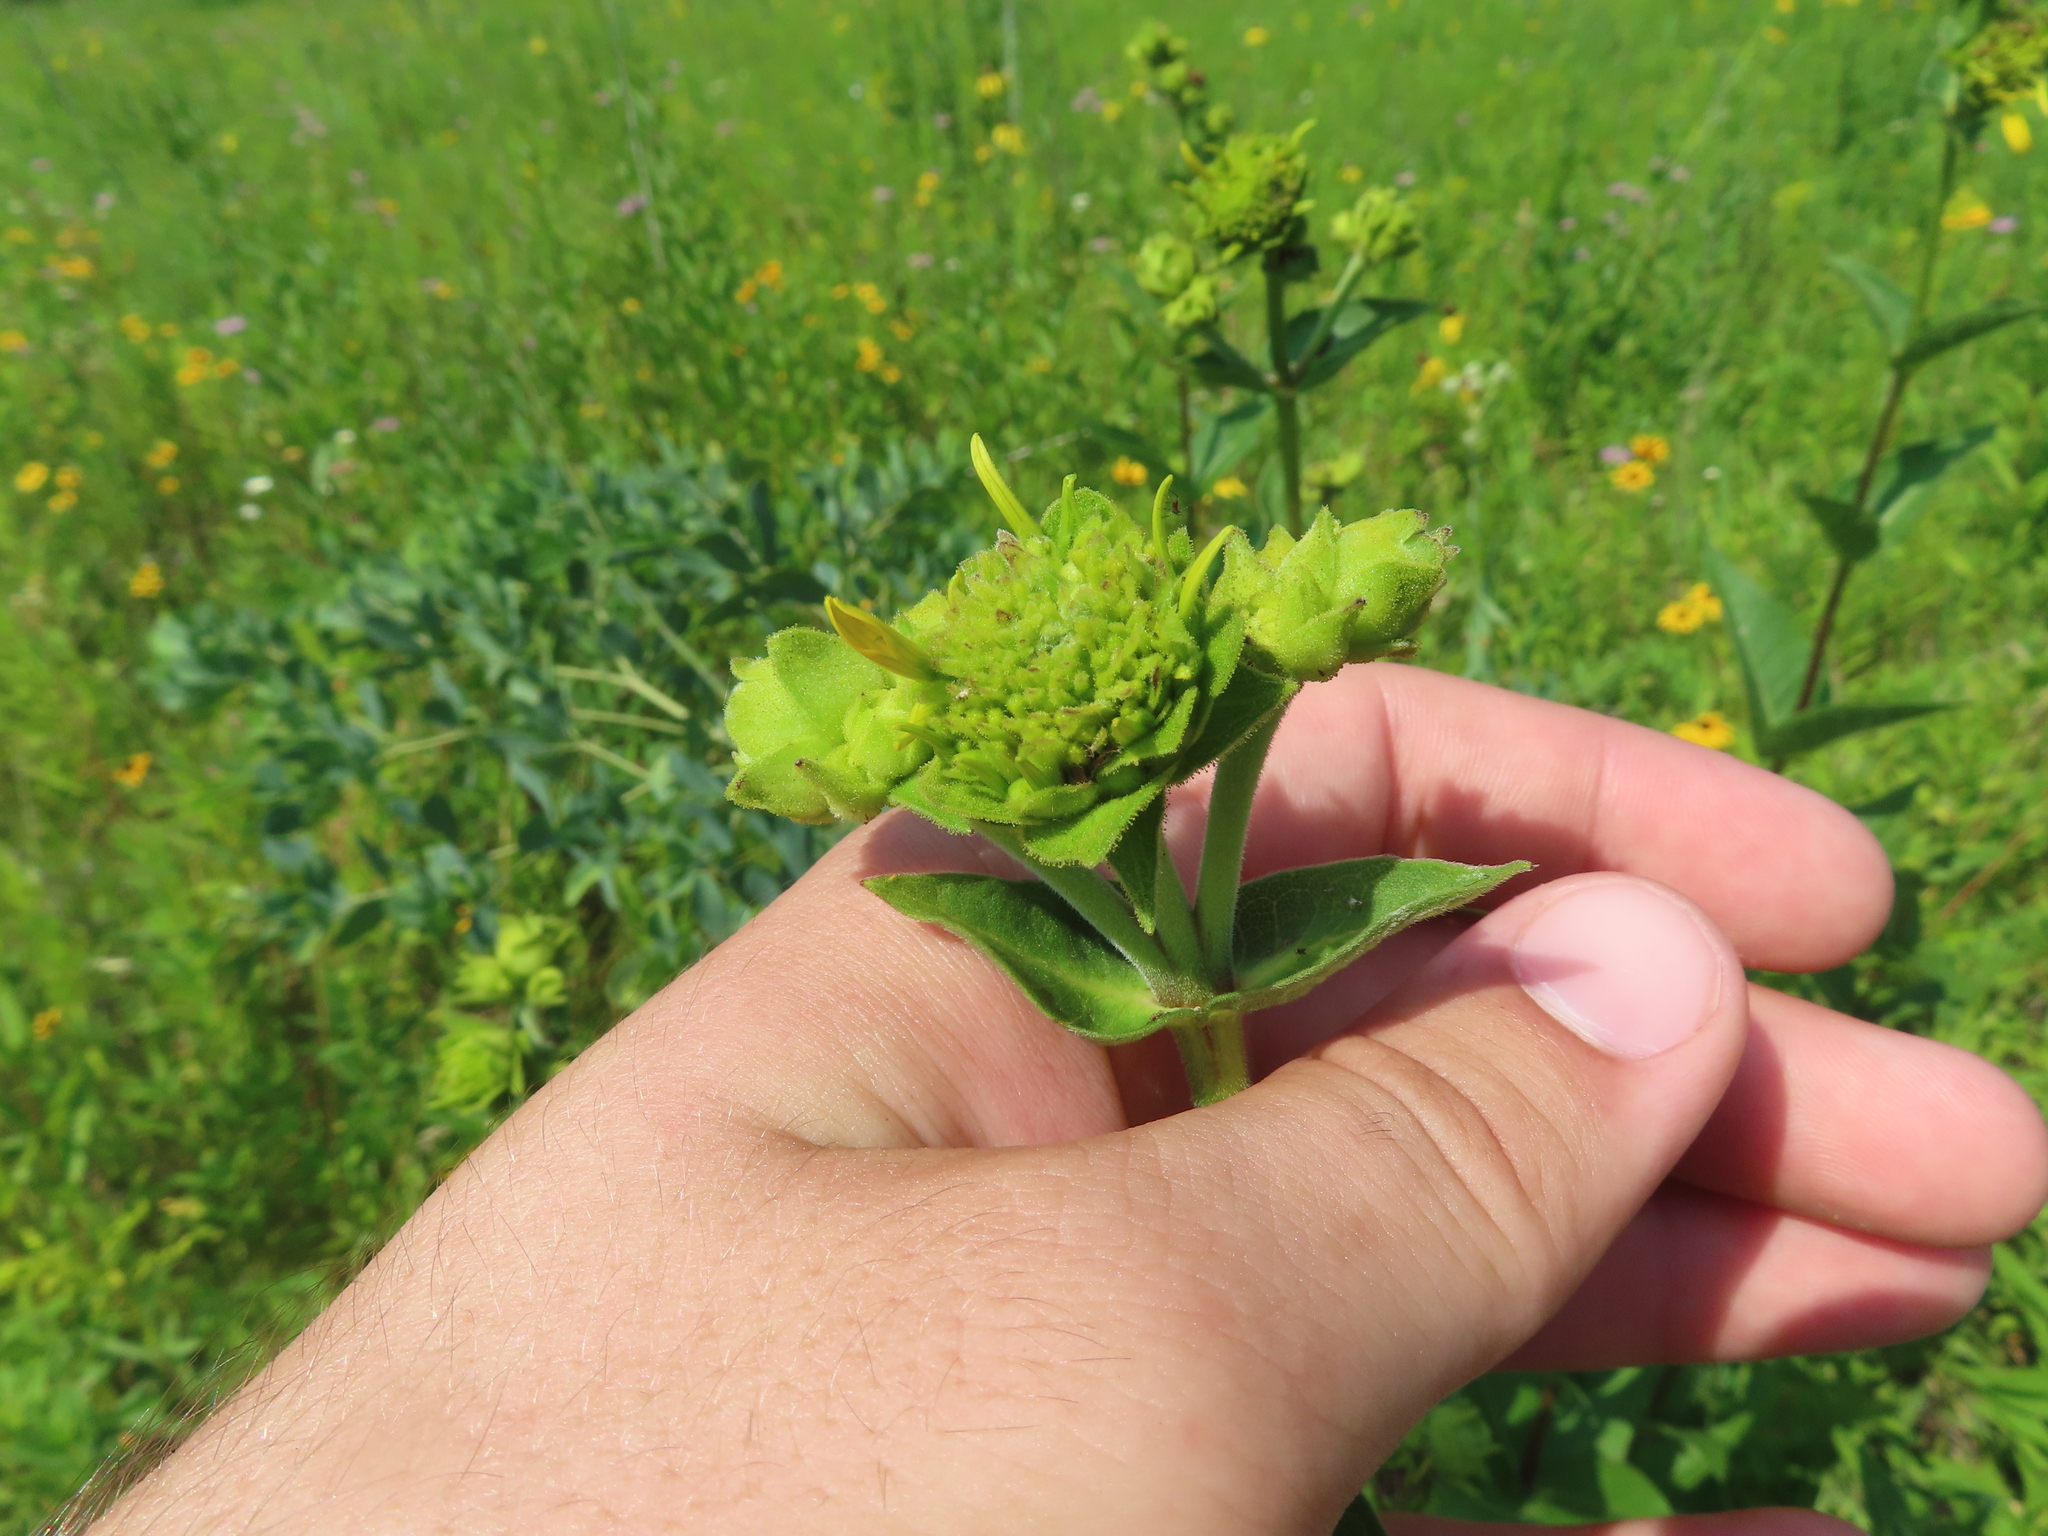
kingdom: Animalia
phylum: Arthropoda
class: Insecta
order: Hymenoptera
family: Cynipidae
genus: Antistrophus
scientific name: Antistrophus silphii
